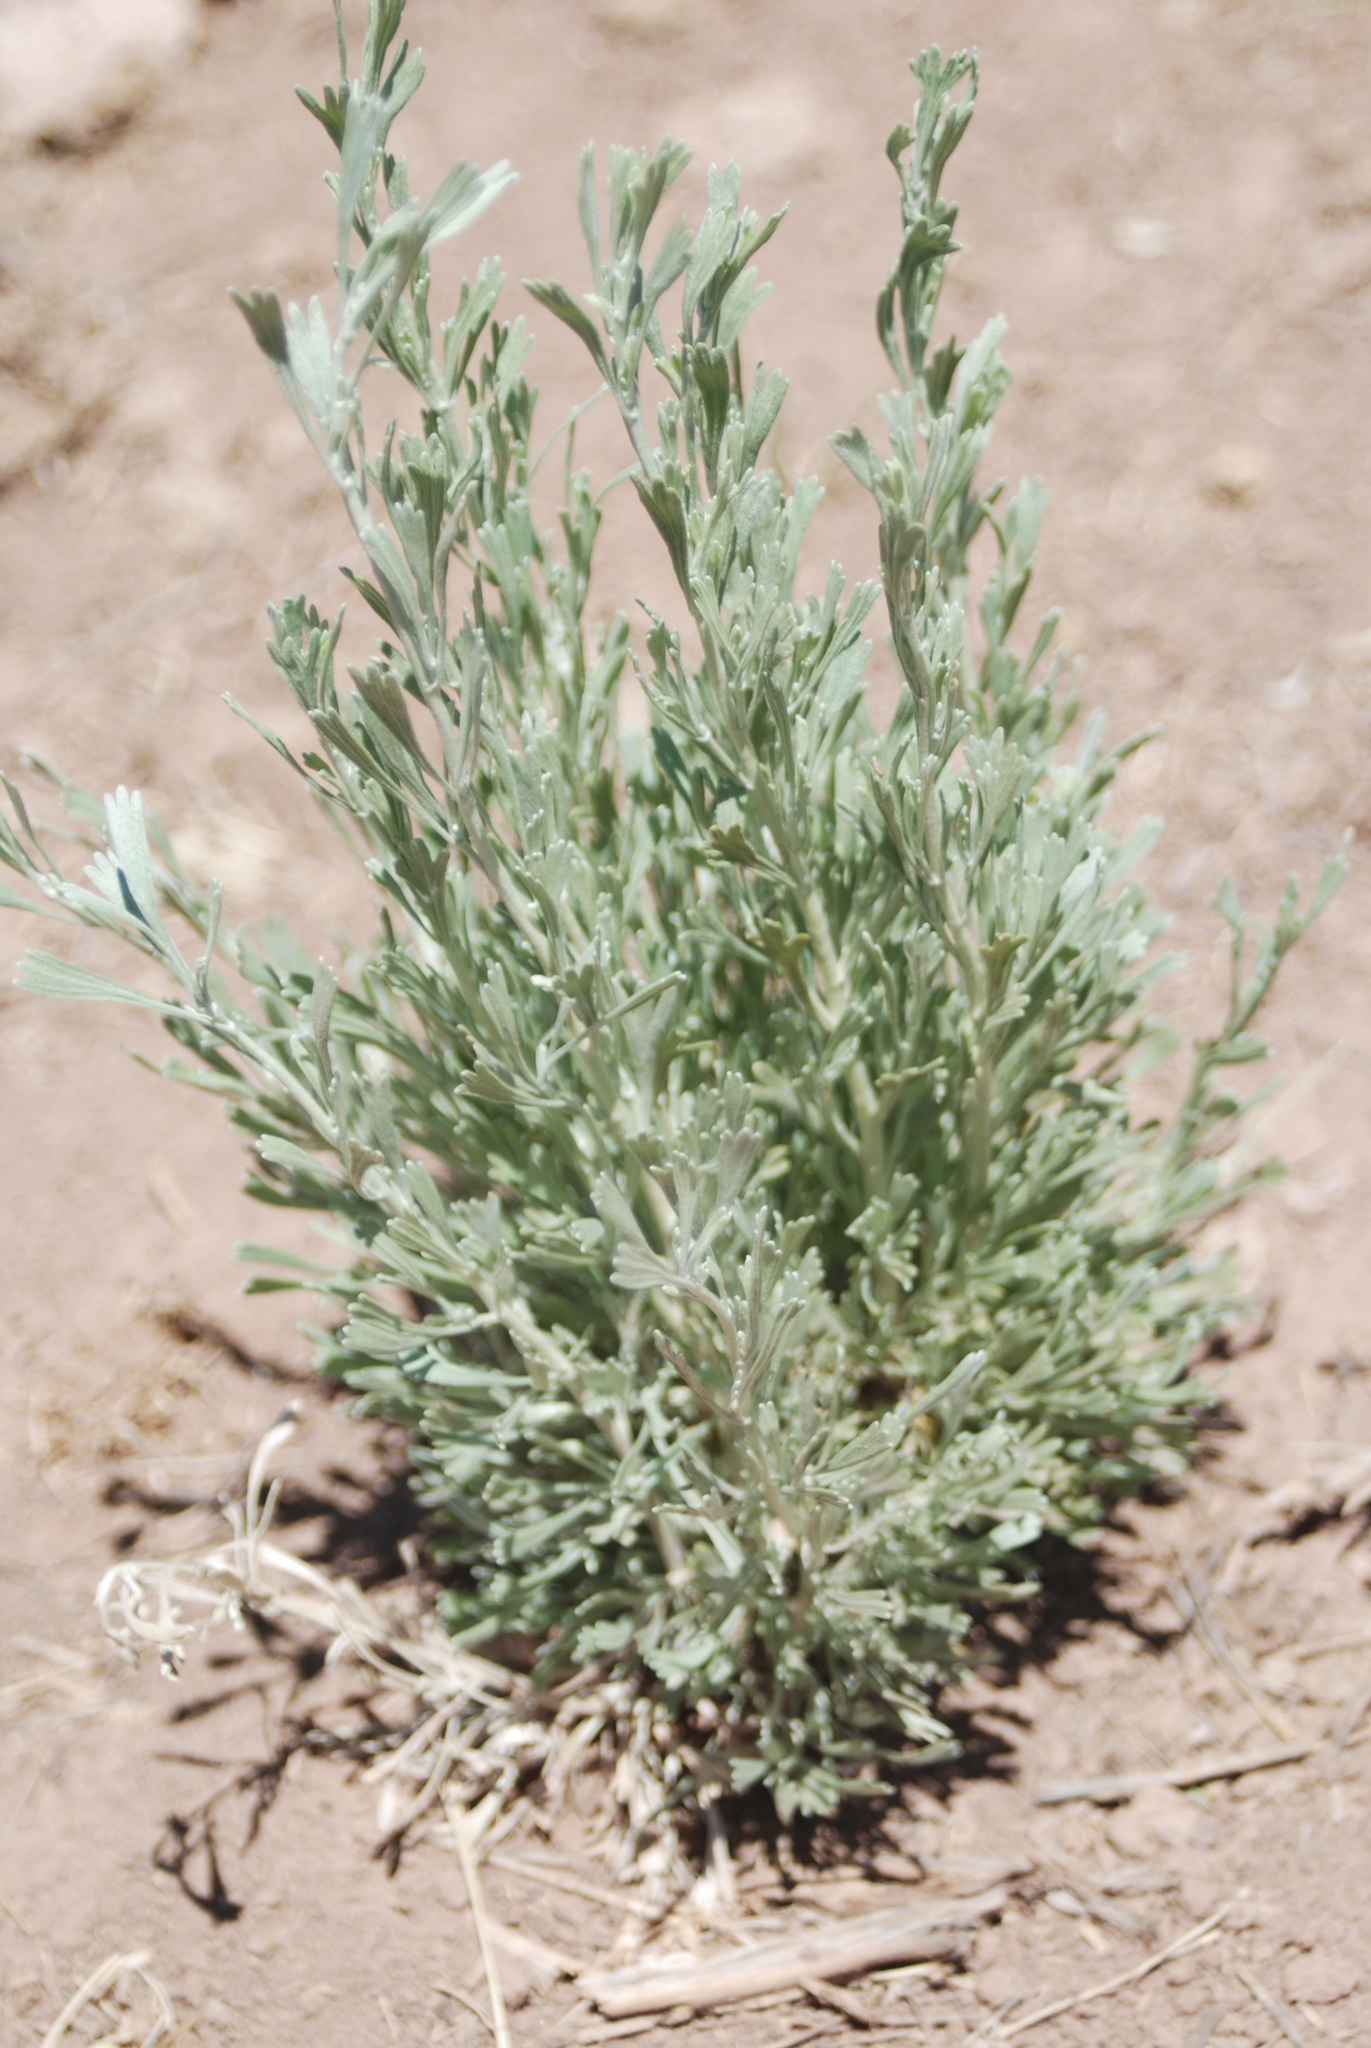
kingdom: Plantae
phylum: Tracheophyta
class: Magnoliopsida
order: Asterales
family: Asteraceae
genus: Artemisia
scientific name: Artemisia tridentata
